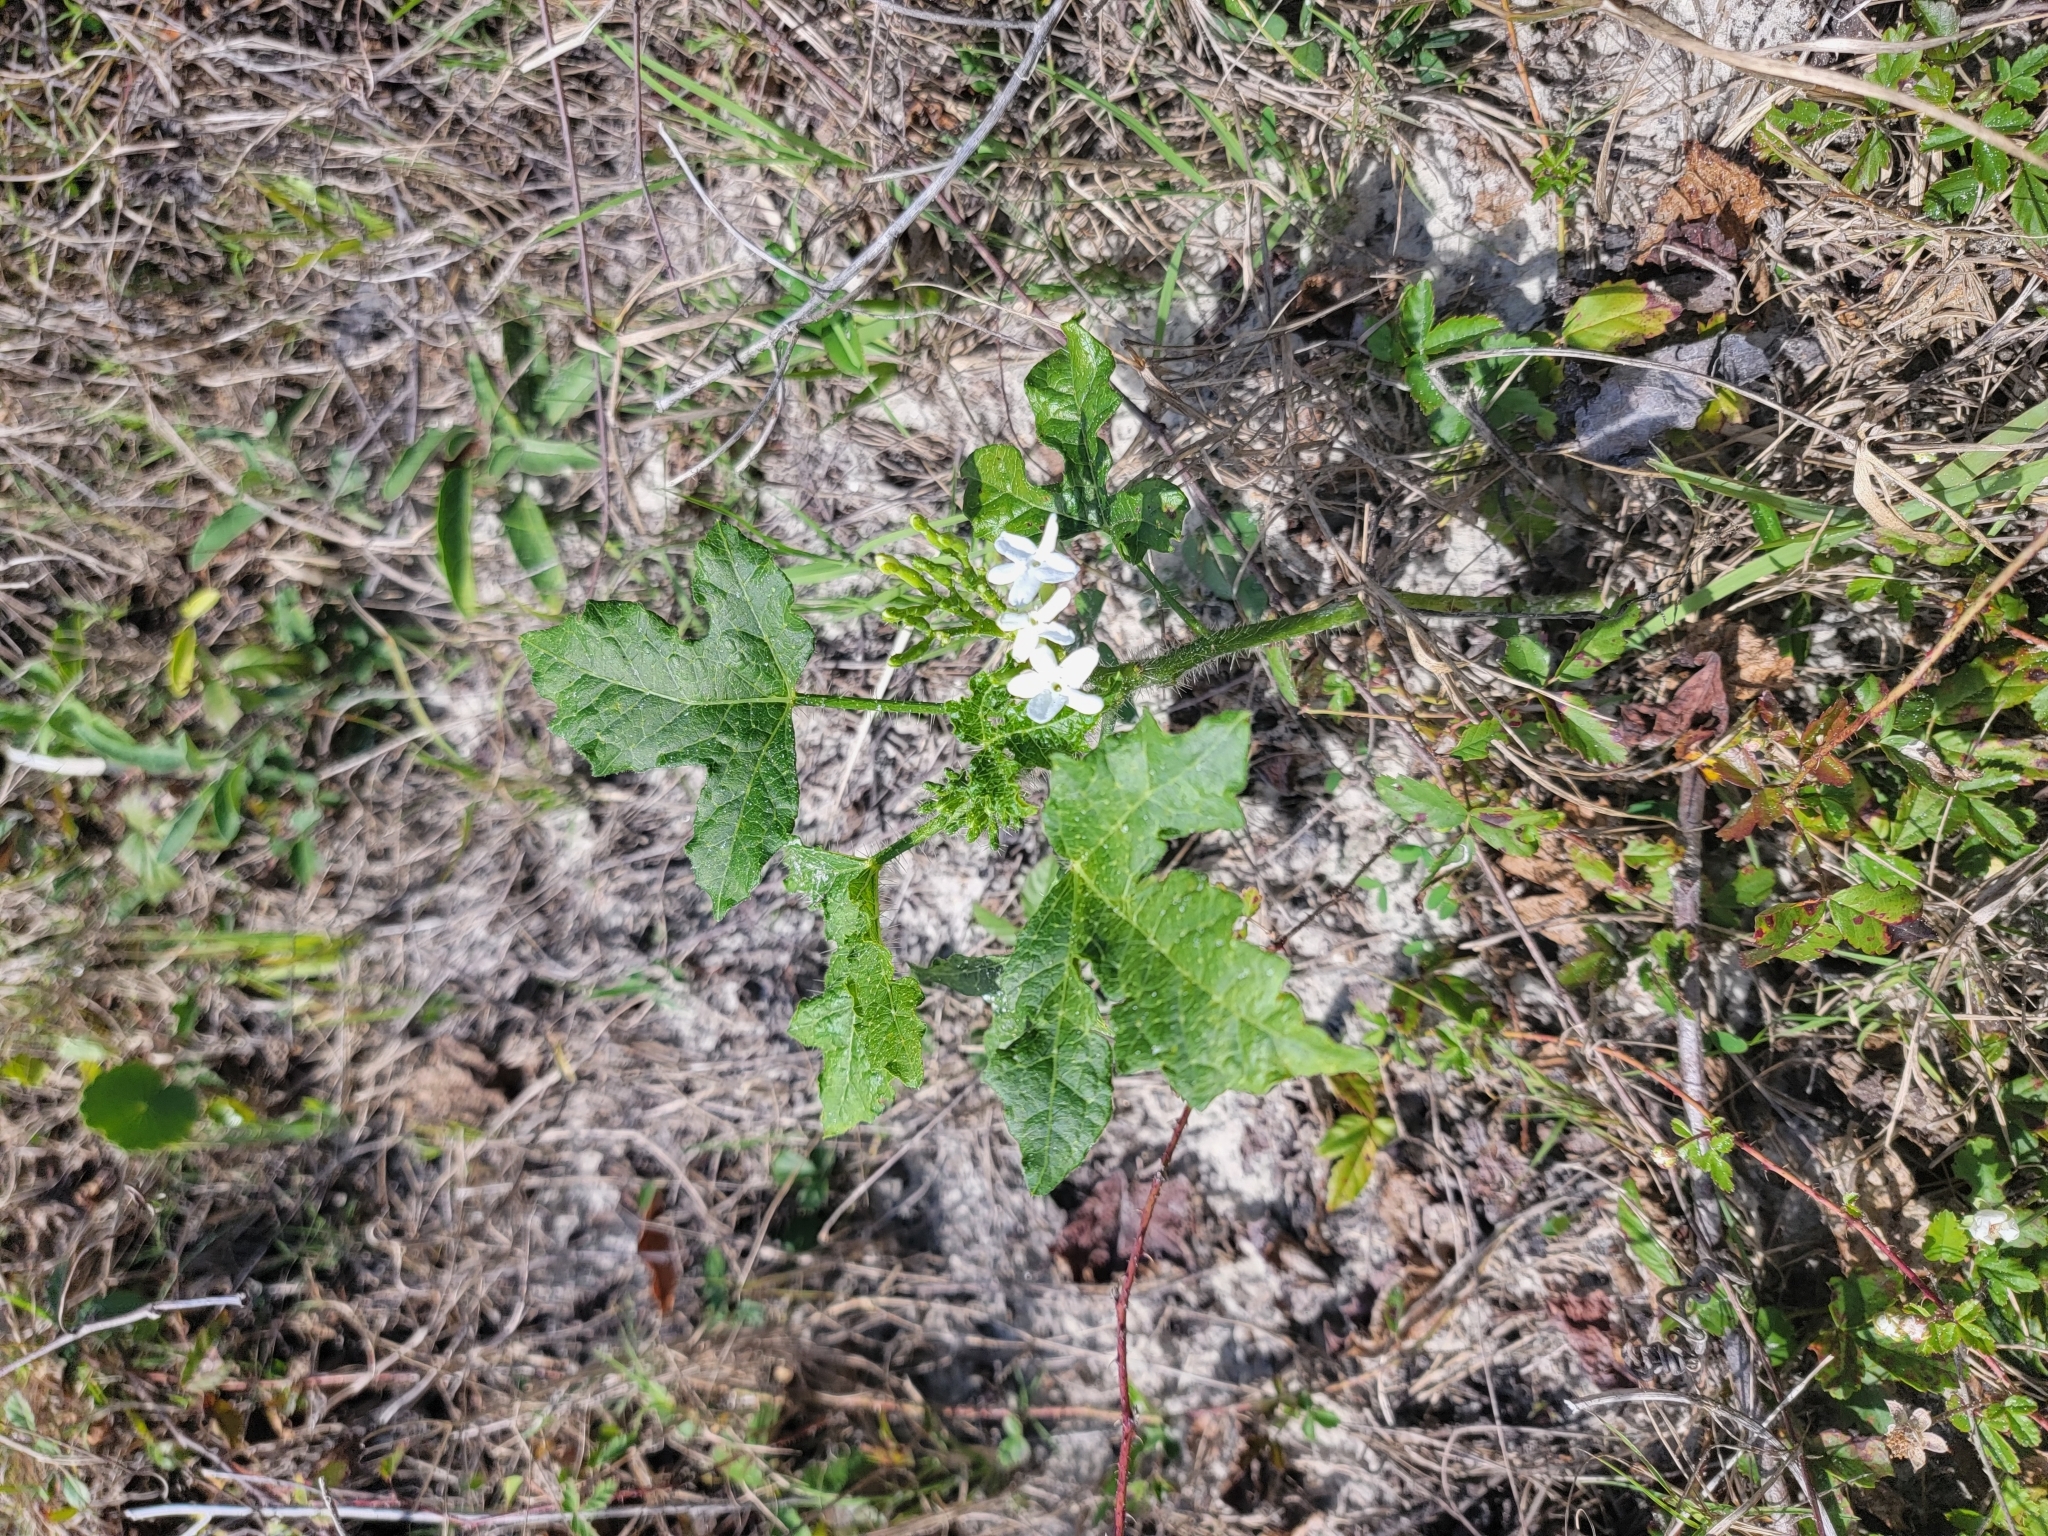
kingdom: Plantae
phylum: Tracheophyta
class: Magnoliopsida
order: Malpighiales
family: Euphorbiaceae
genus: Cnidoscolus
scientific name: Cnidoscolus stimulosus
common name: Bull-nettle
